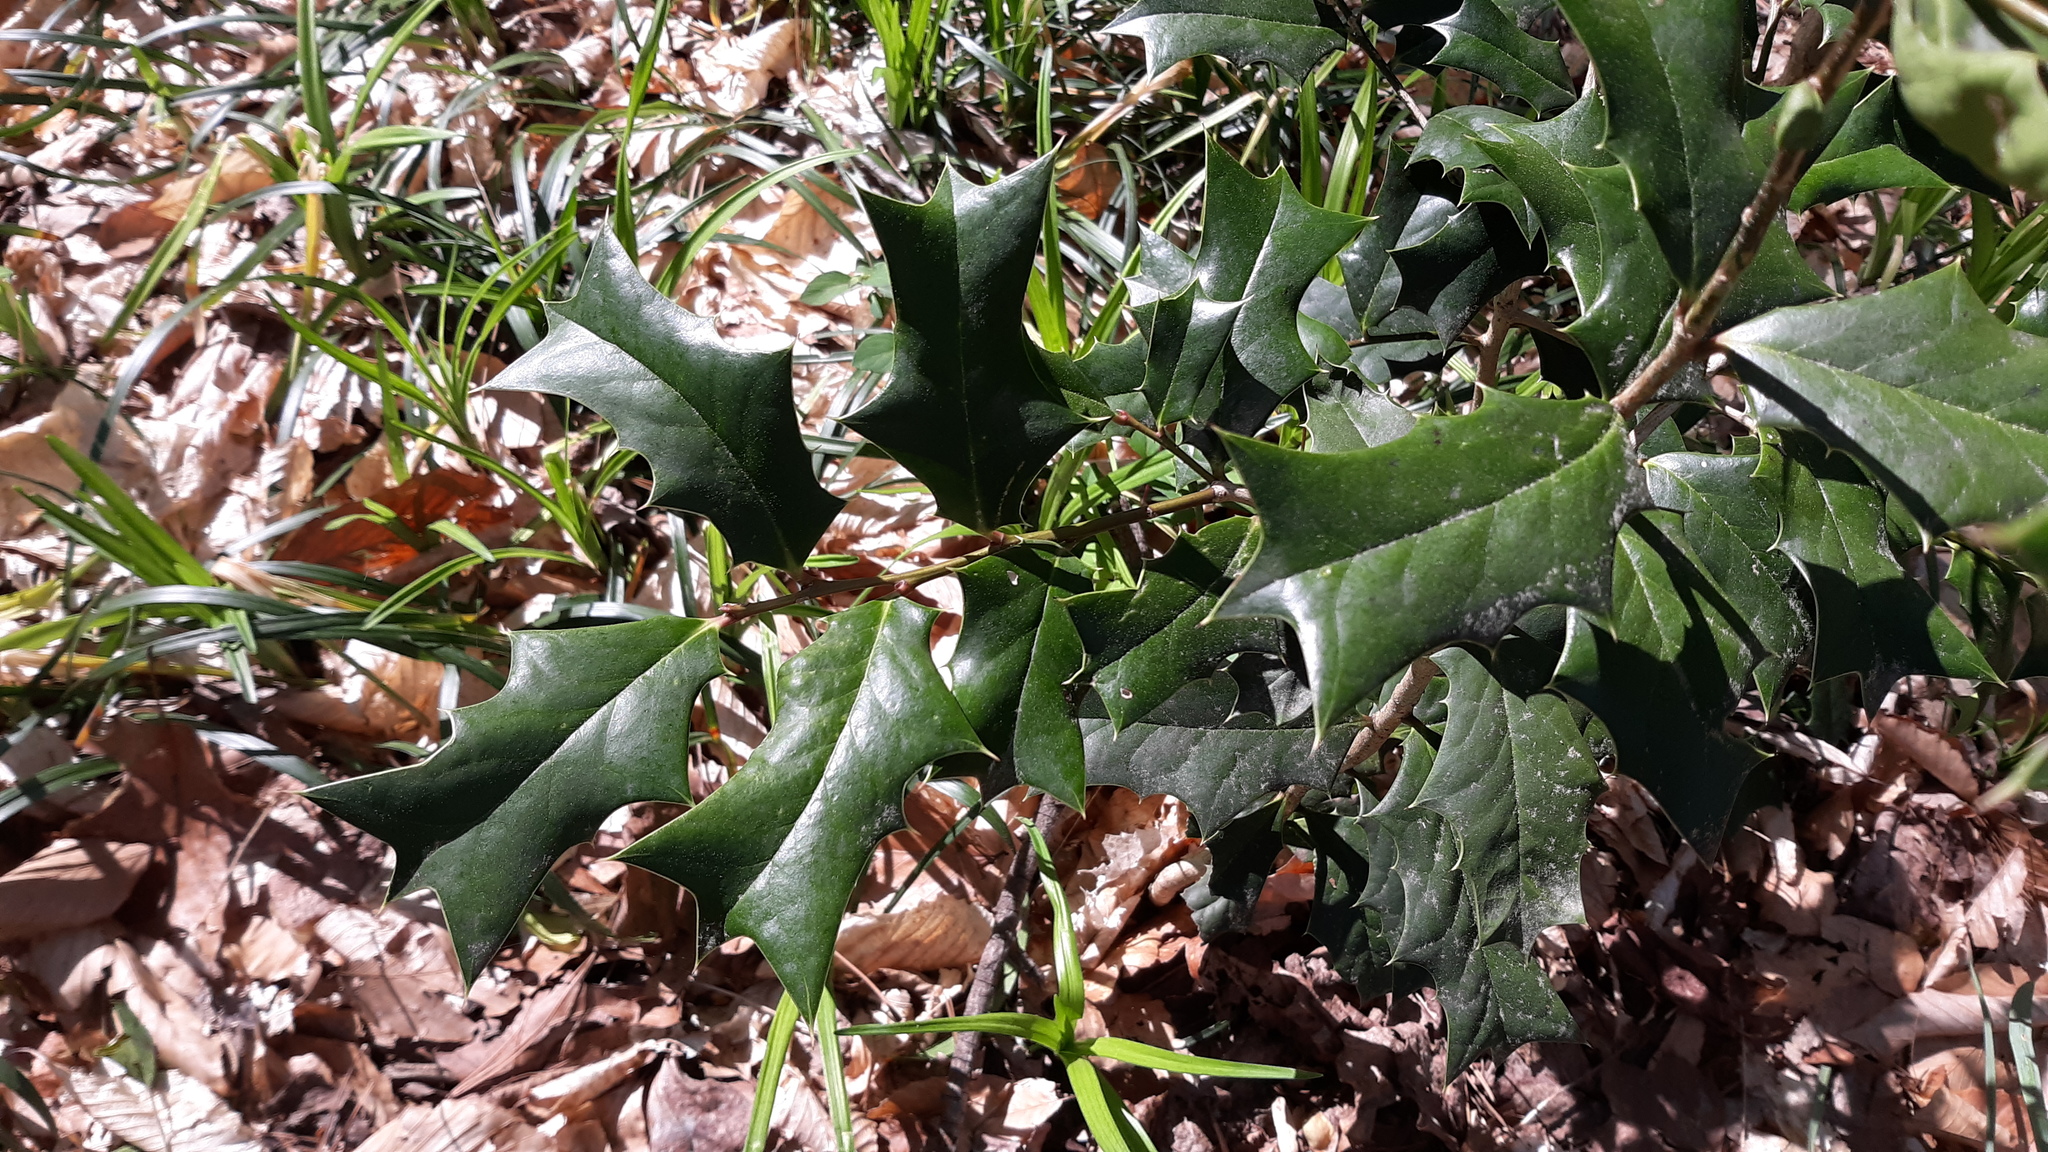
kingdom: Plantae
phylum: Tracheophyta
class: Magnoliopsida
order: Aquifoliales
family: Aquifoliaceae
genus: Ilex
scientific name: Ilex cornuta
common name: Chinese holly
